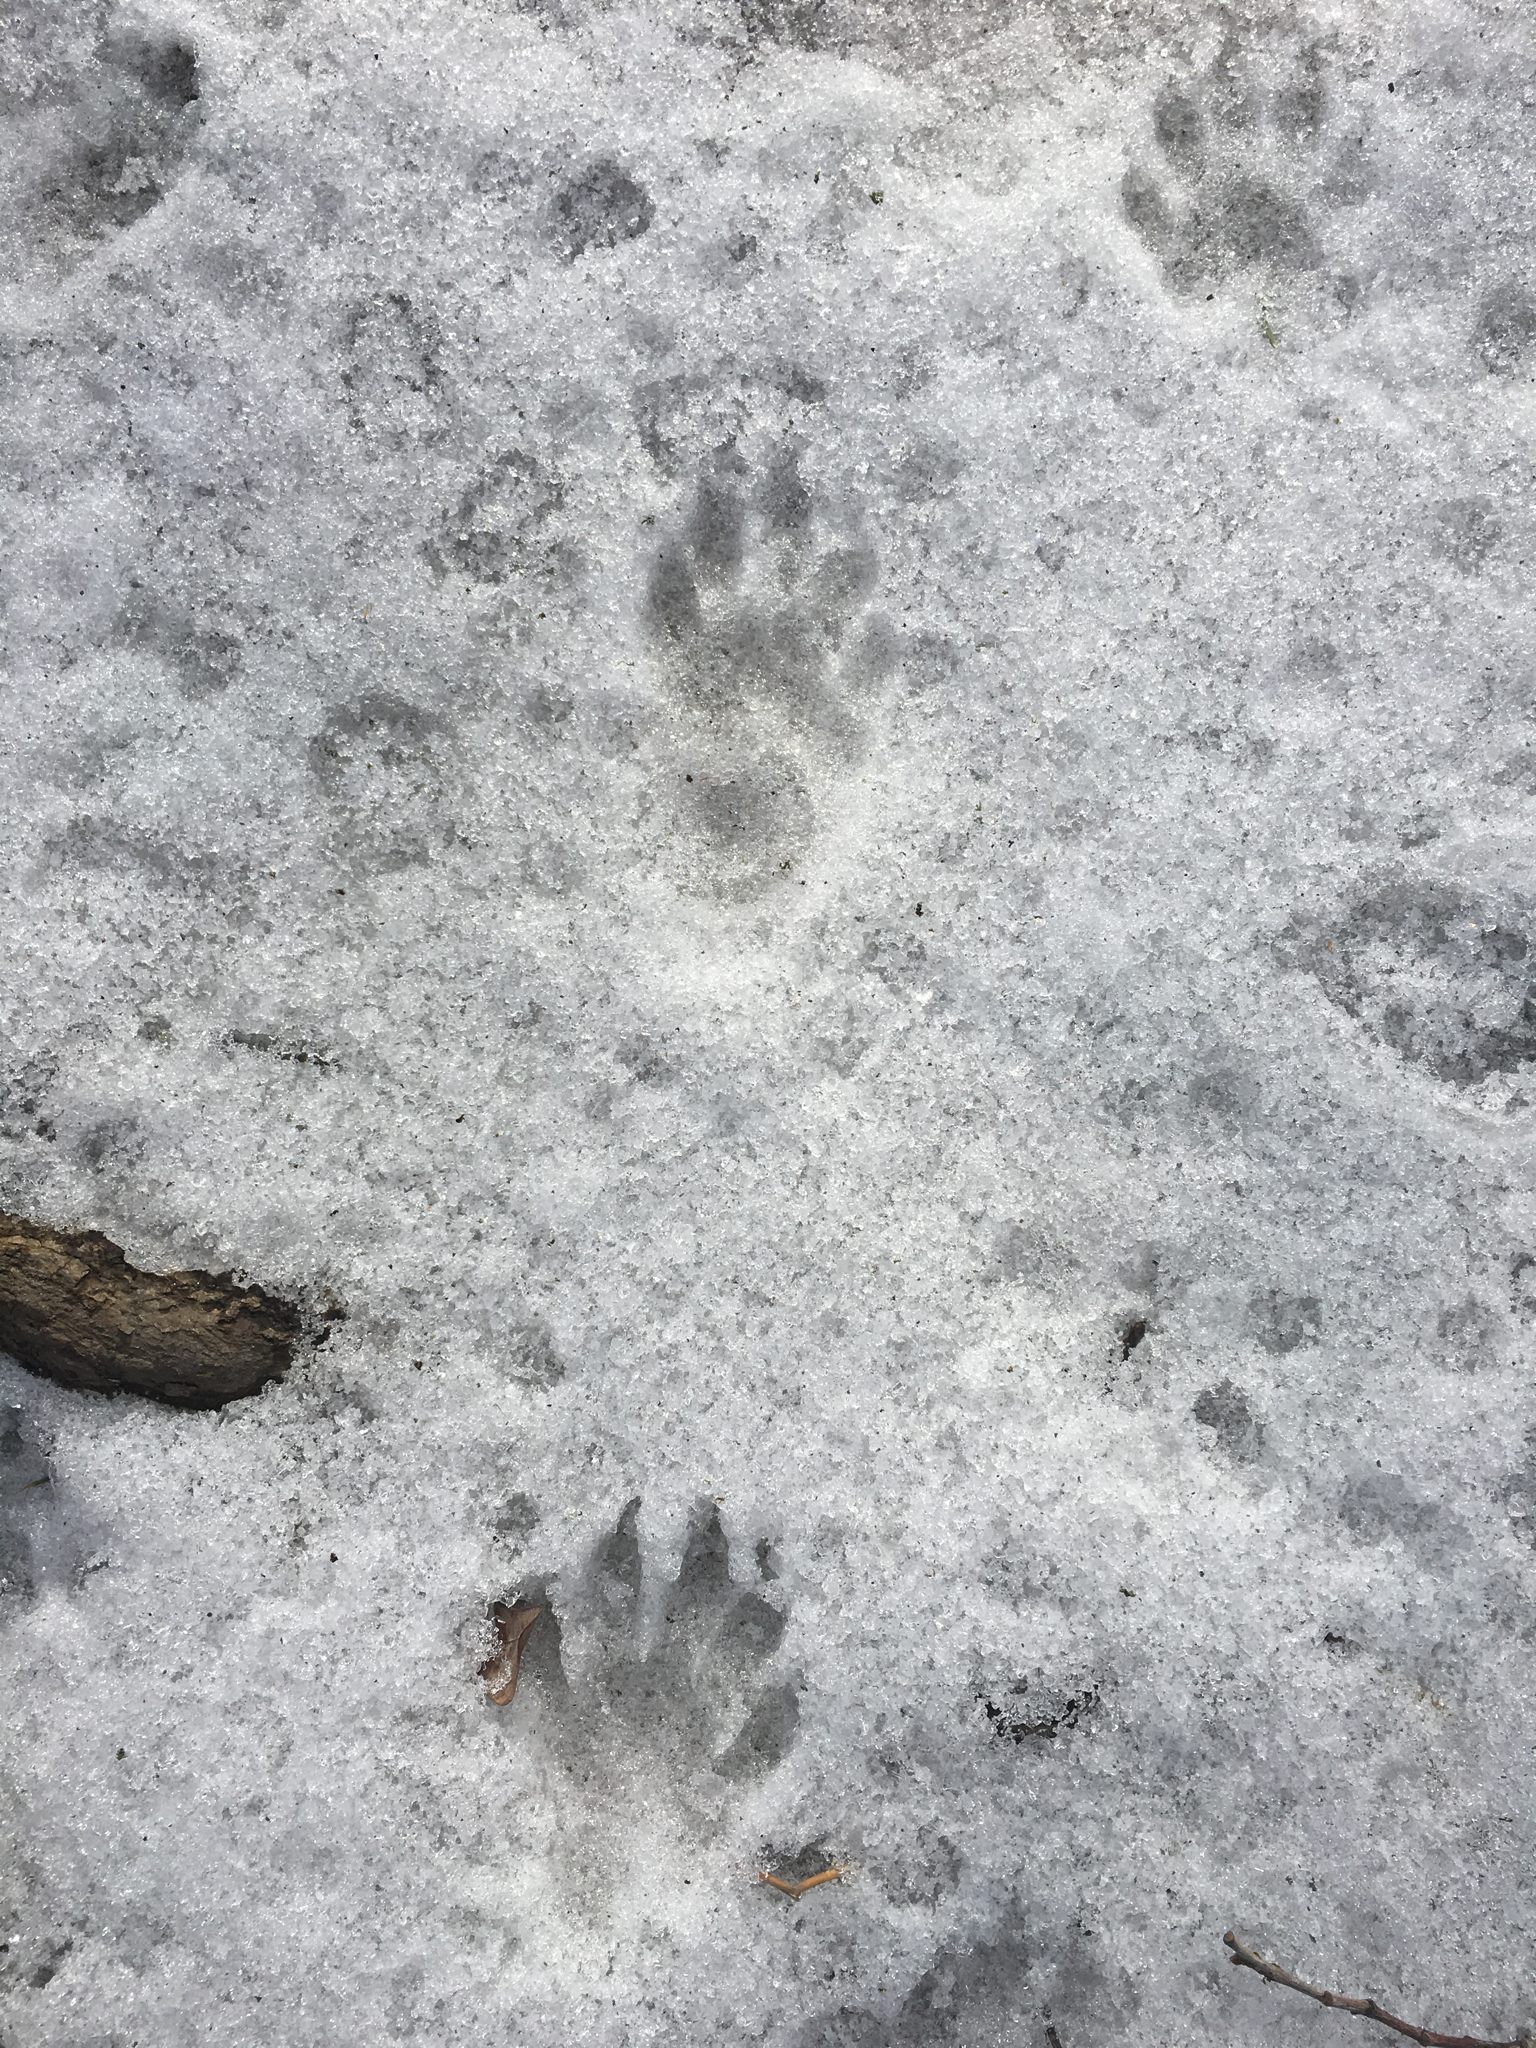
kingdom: Animalia
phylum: Chordata
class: Mammalia
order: Carnivora
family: Procyonidae
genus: Procyon
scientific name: Procyon lotor
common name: Raccoon
